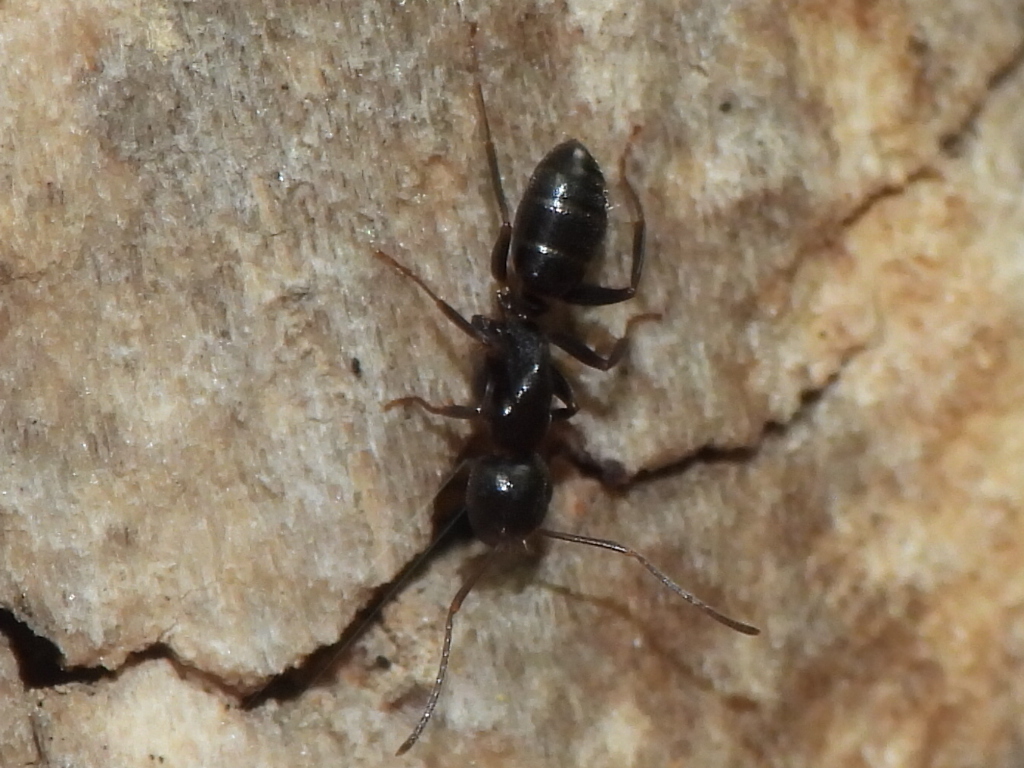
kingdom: Animalia
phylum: Arthropoda
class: Insecta
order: Hymenoptera
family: Formicidae
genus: Camponotus
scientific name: Camponotus nearcticus
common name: Smaller carpenter ant
